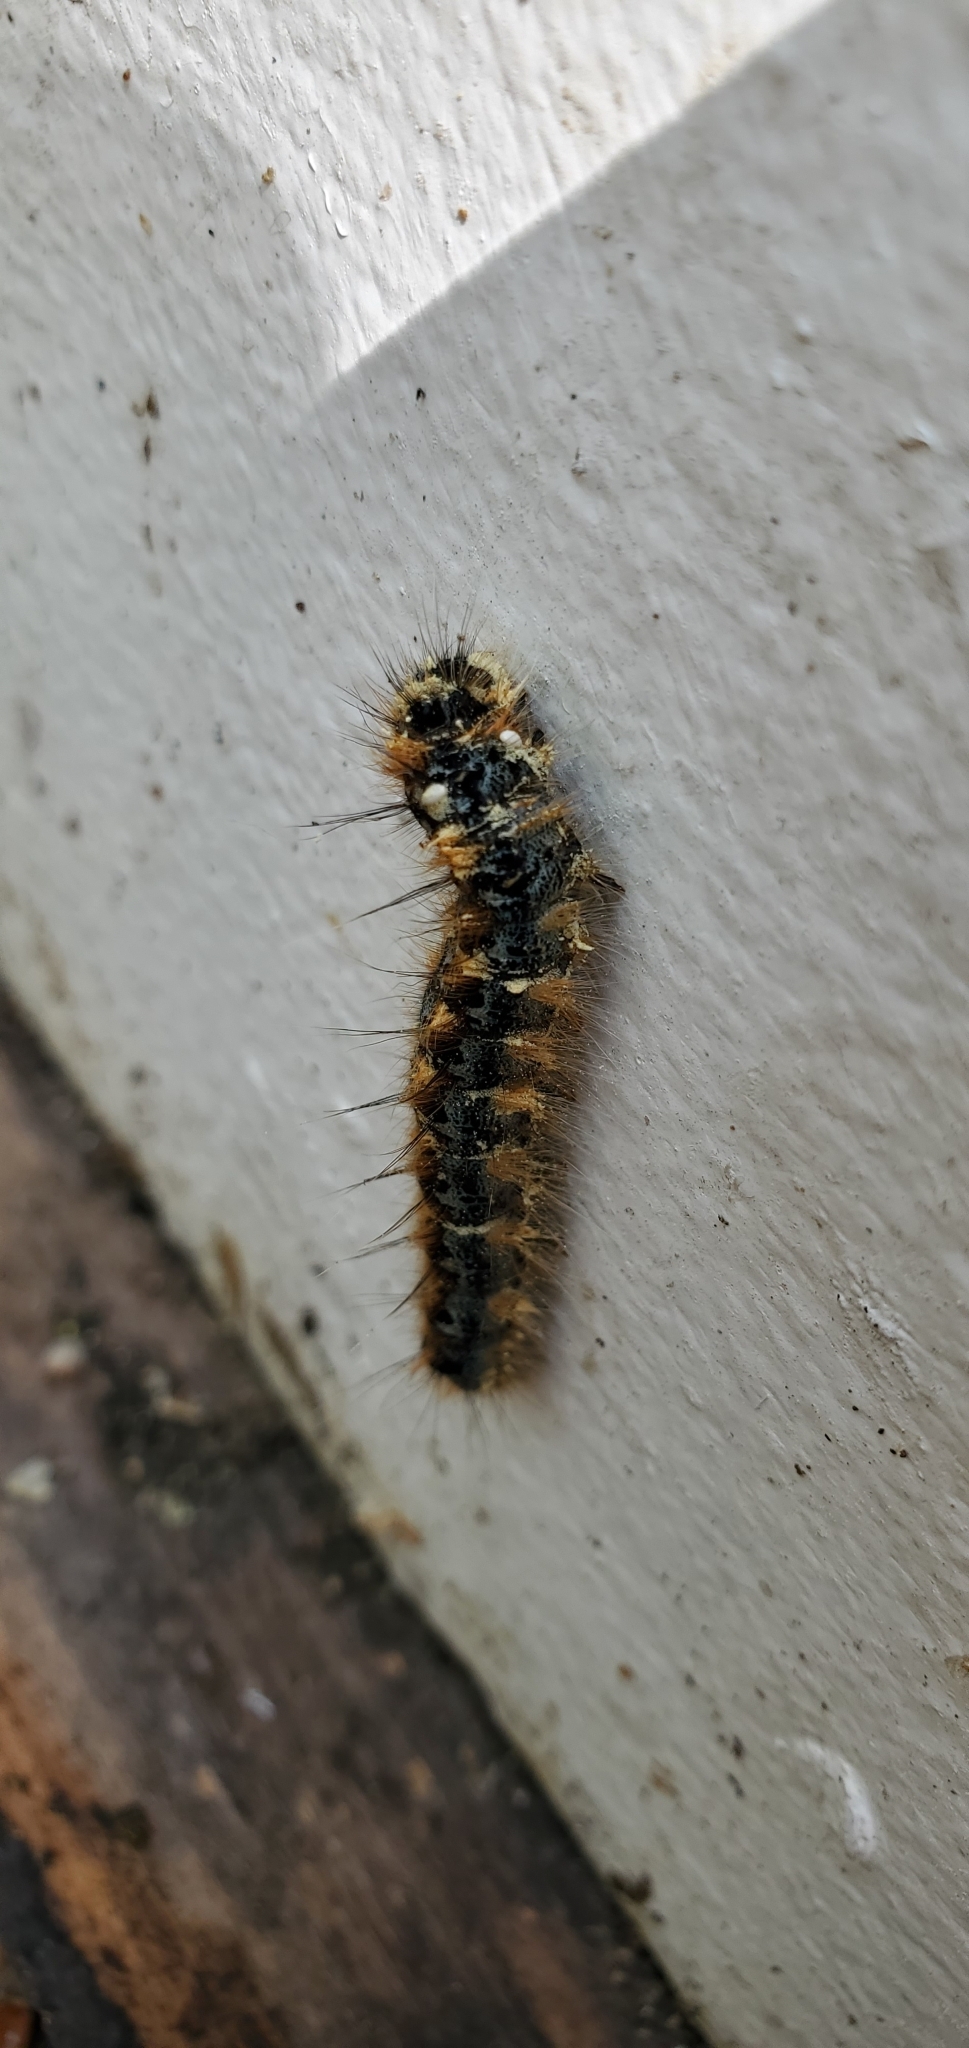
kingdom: Animalia
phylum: Arthropoda
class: Insecta
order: Lepidoptera
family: Lasiocampidae
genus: Malacosoma
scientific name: Malacosoma constricta
